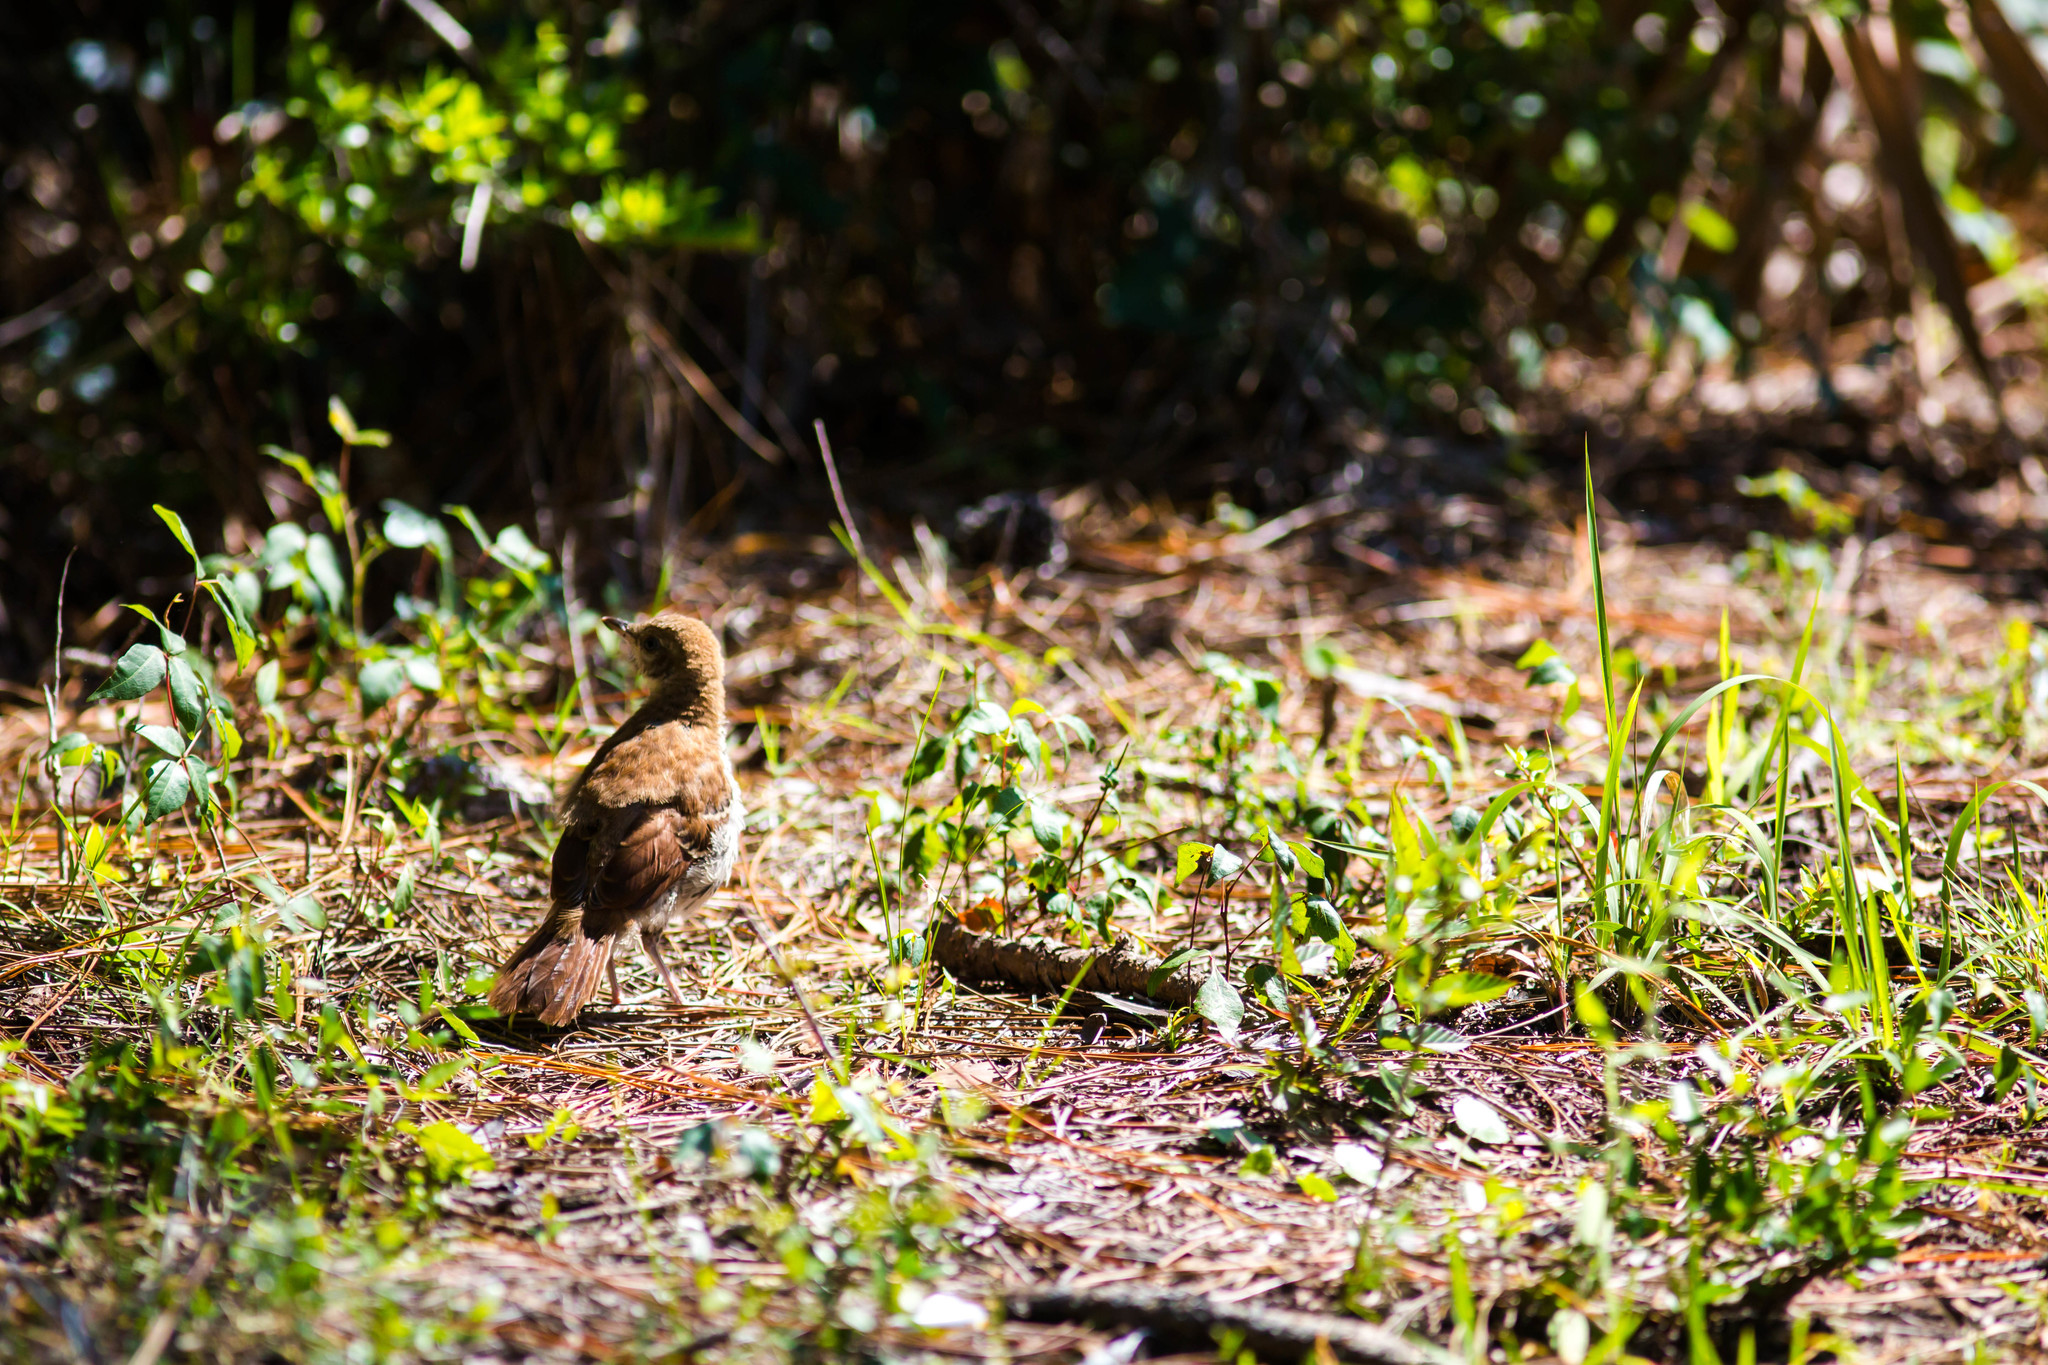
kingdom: Animalia
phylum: Chordata
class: Aves
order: Passeriformes
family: Mimidae
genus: Toxostoma
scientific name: Toxostoma rufum
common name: Brown thrasher
